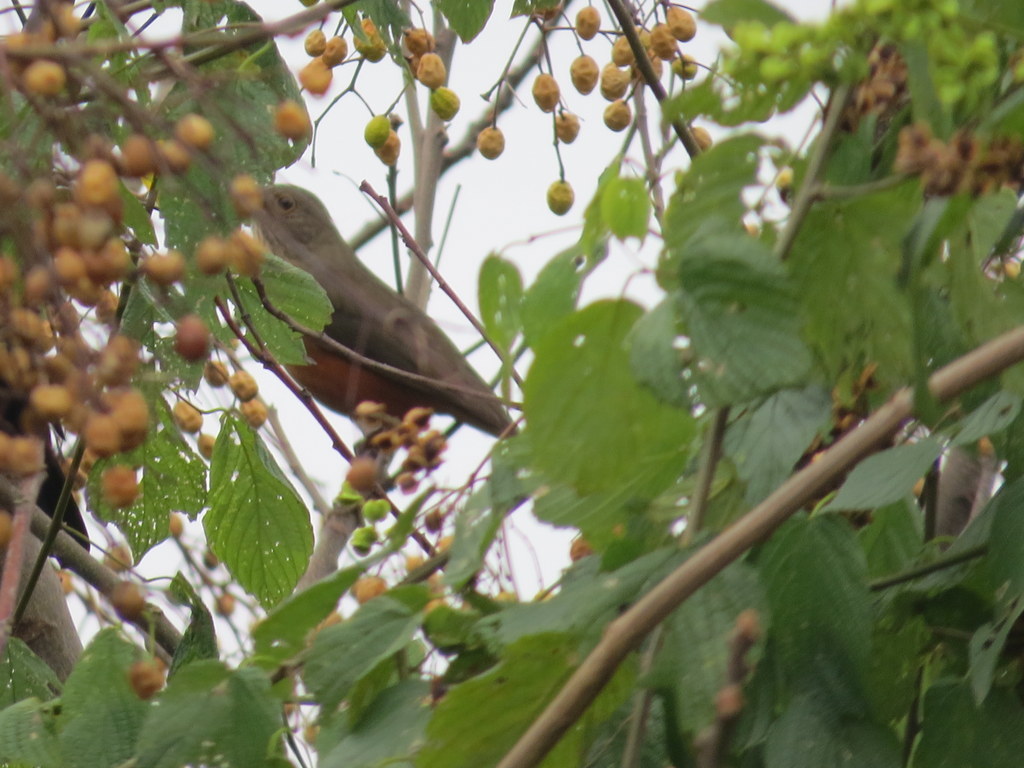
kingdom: Animalia
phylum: Chordata
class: Aves
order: Passeriformes
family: Turdidae
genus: Turdus
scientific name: Turdus rufiventris
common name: Rufous-bellied thrush
